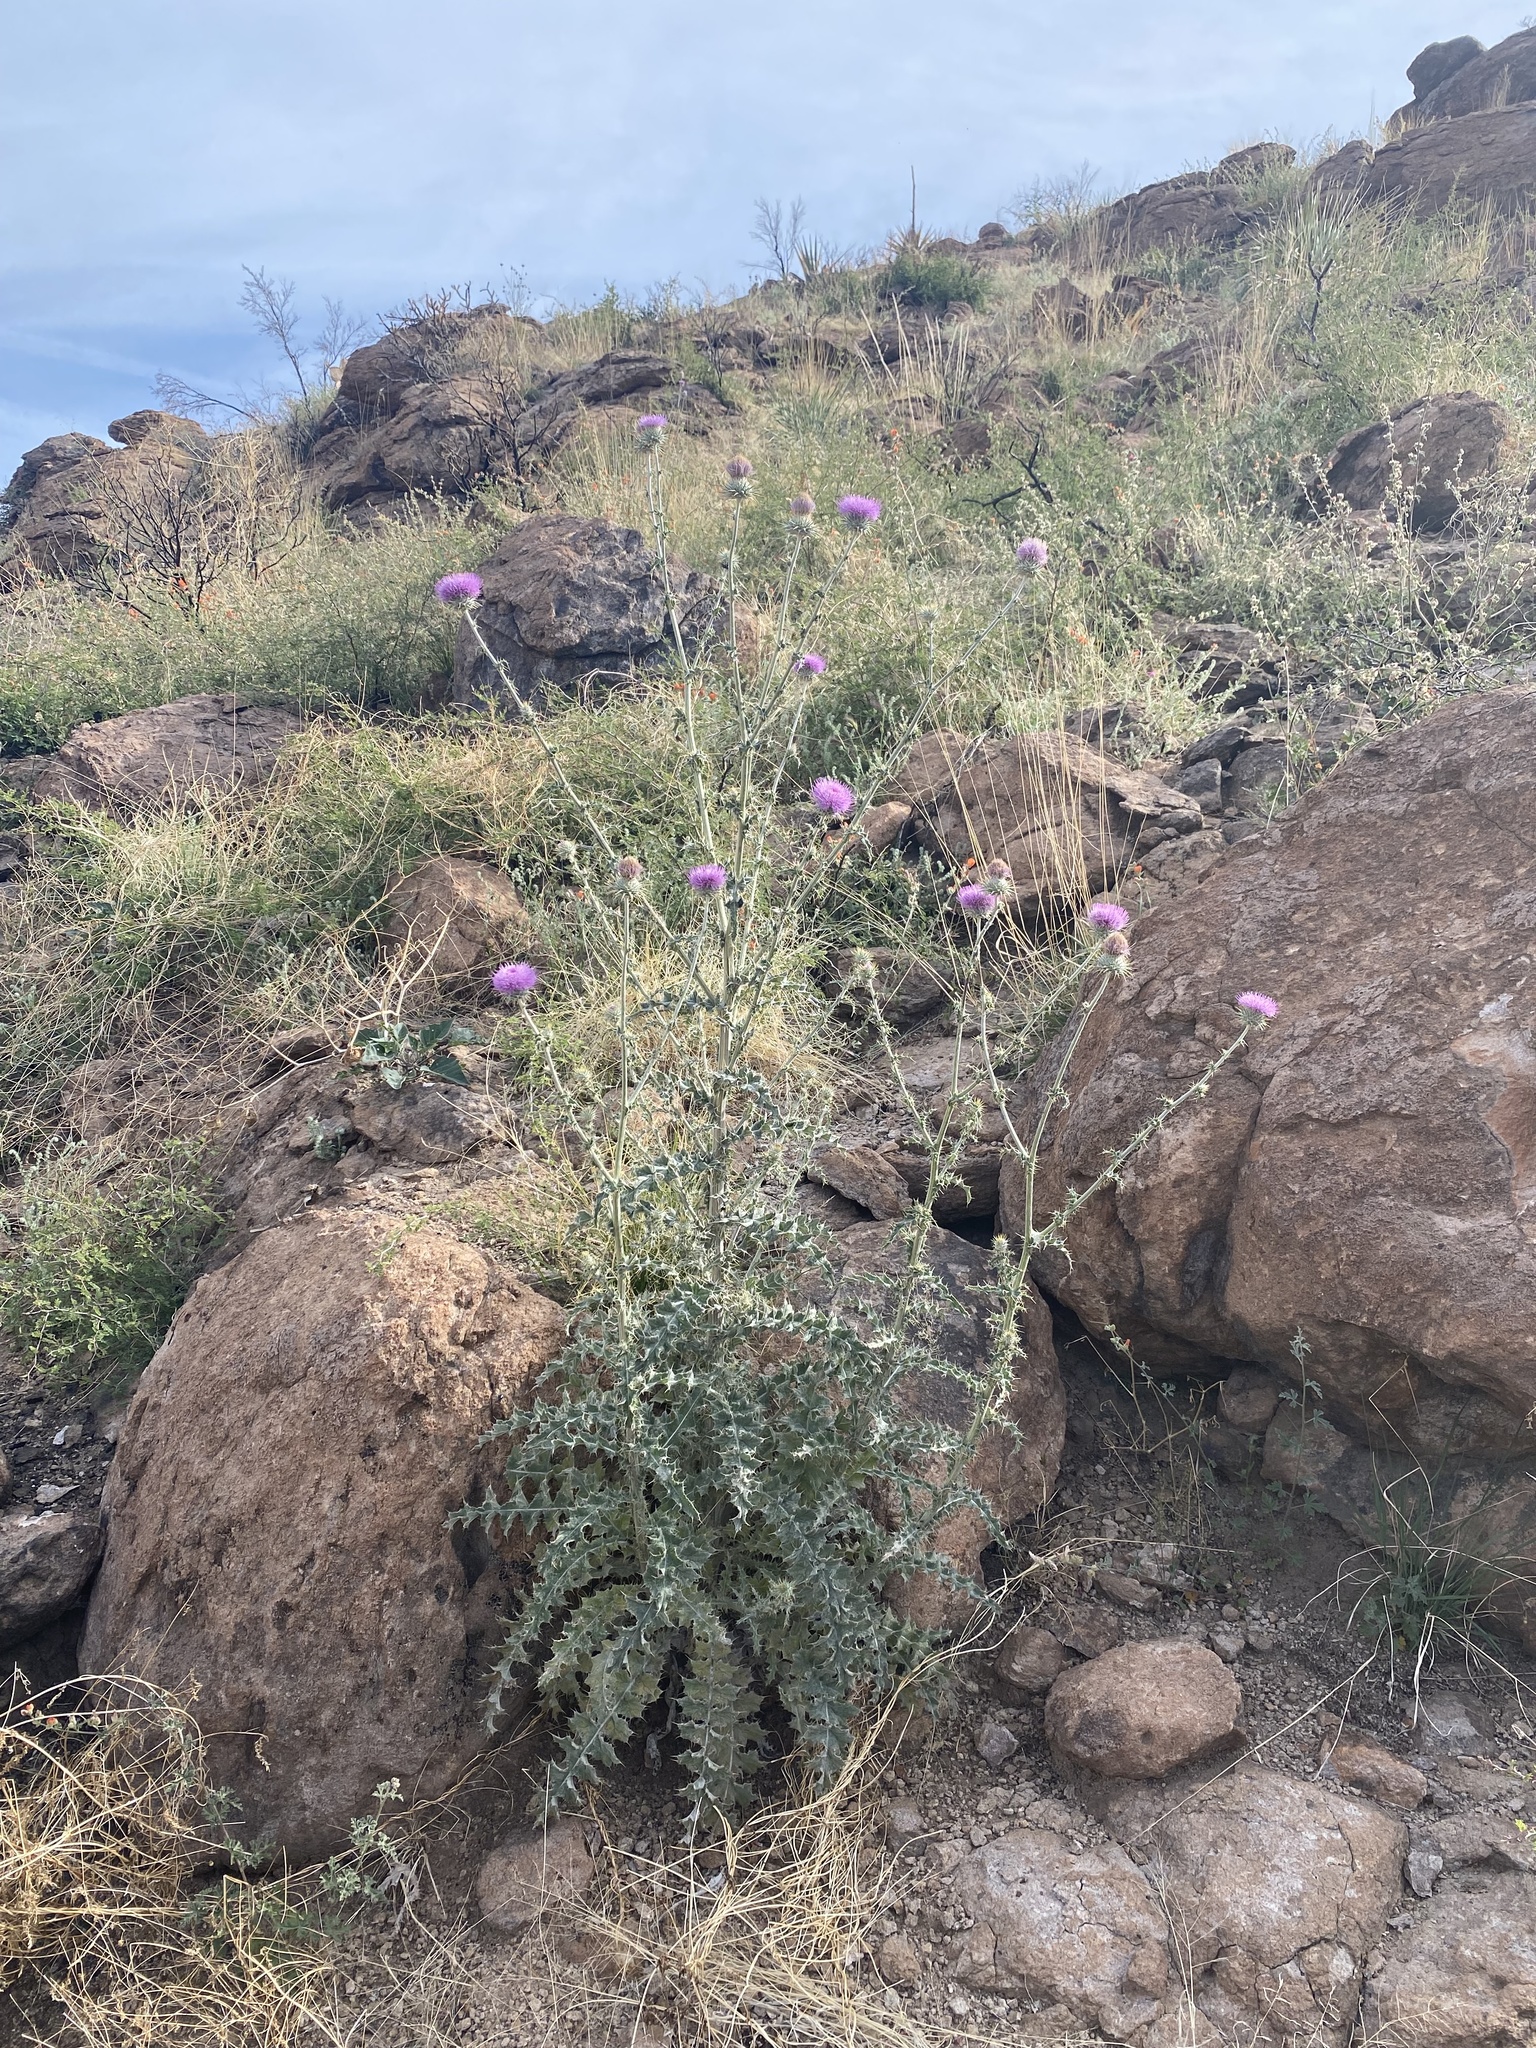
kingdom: Plantae
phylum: Tracheophyta
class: Magnoliopsida
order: Asterales
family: Asteraceae
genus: Cirsium
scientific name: Cirsium neomexicanum
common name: New mexico thistle
